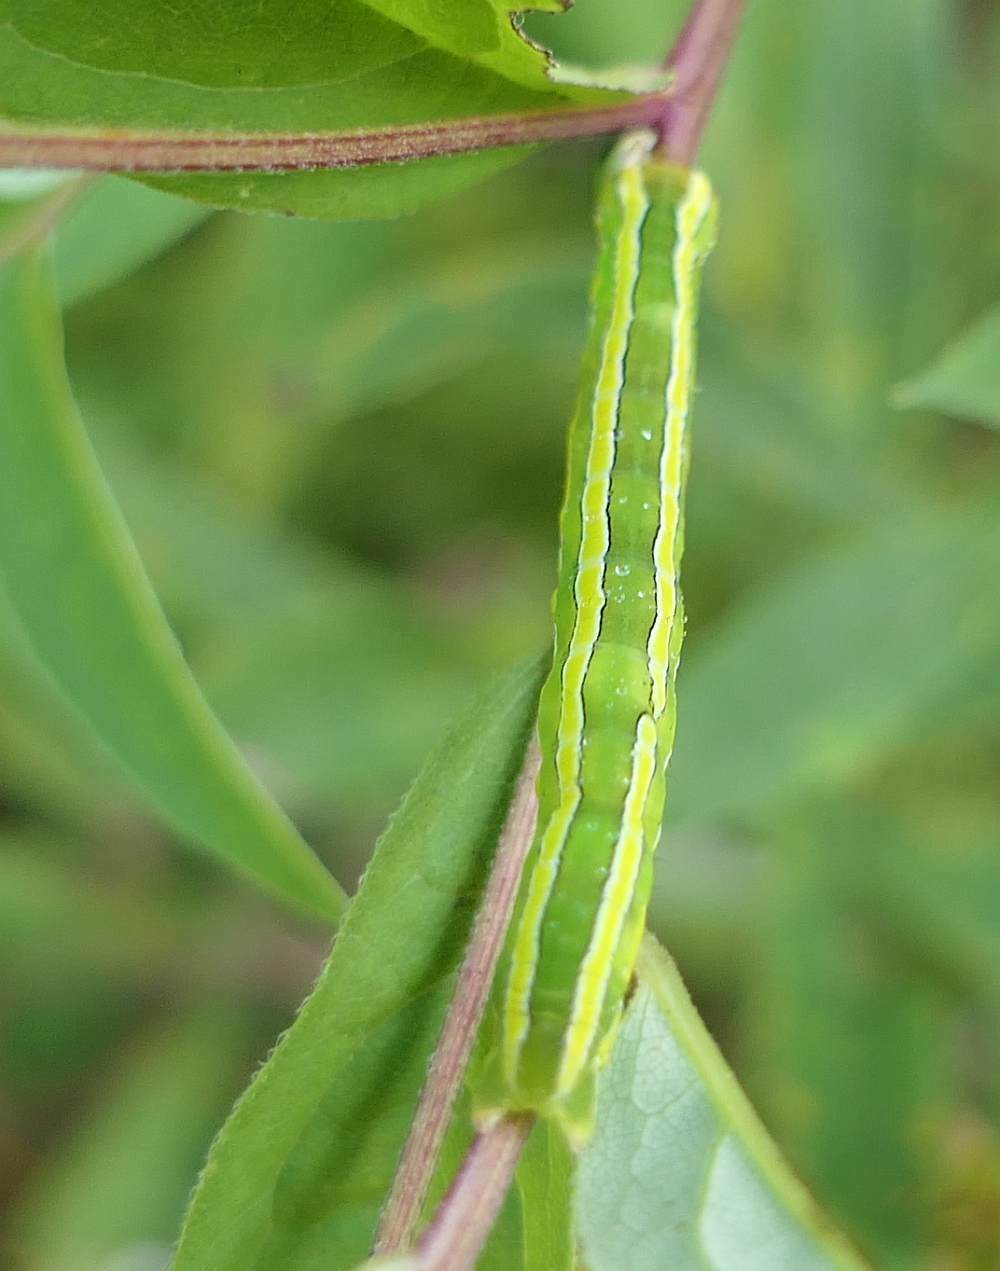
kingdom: Animalia
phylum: Arthropoda
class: Insecta
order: Lepidoptera
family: Noctuidae
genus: Melanchra
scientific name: Melanchra assimilis
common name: Black arches
